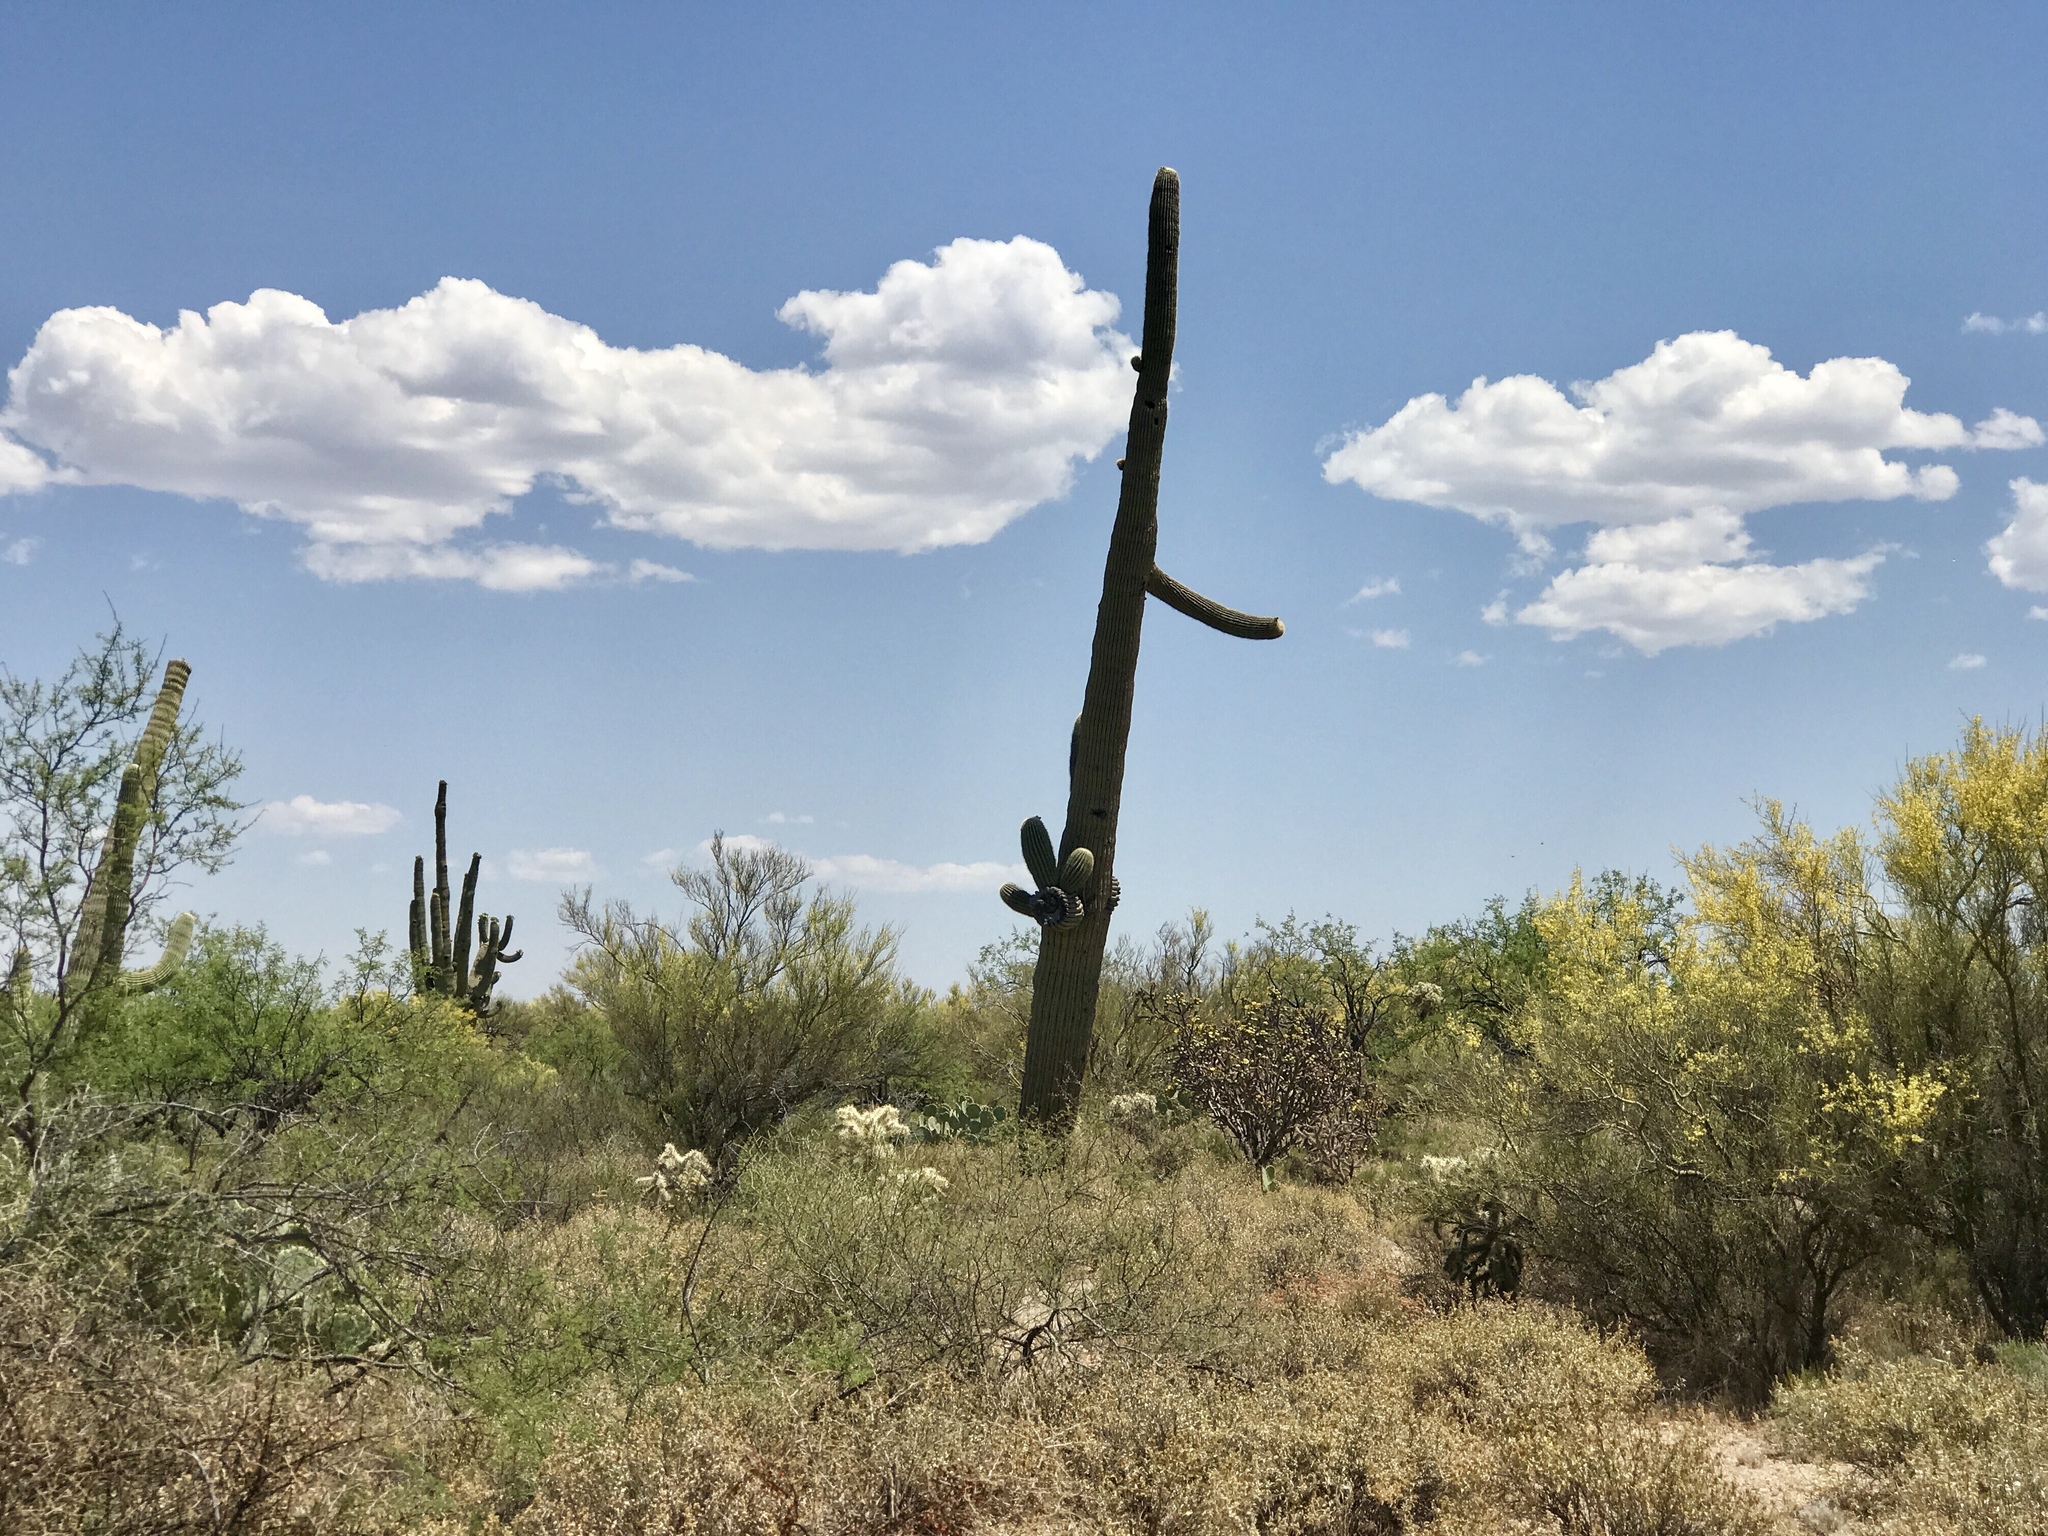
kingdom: Plantae
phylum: Tracheophyta
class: Magnoliopsida
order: Caryophyllales
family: Cactaceae
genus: Carnegiea
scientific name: Carnegiea gigantea
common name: Saguaro
